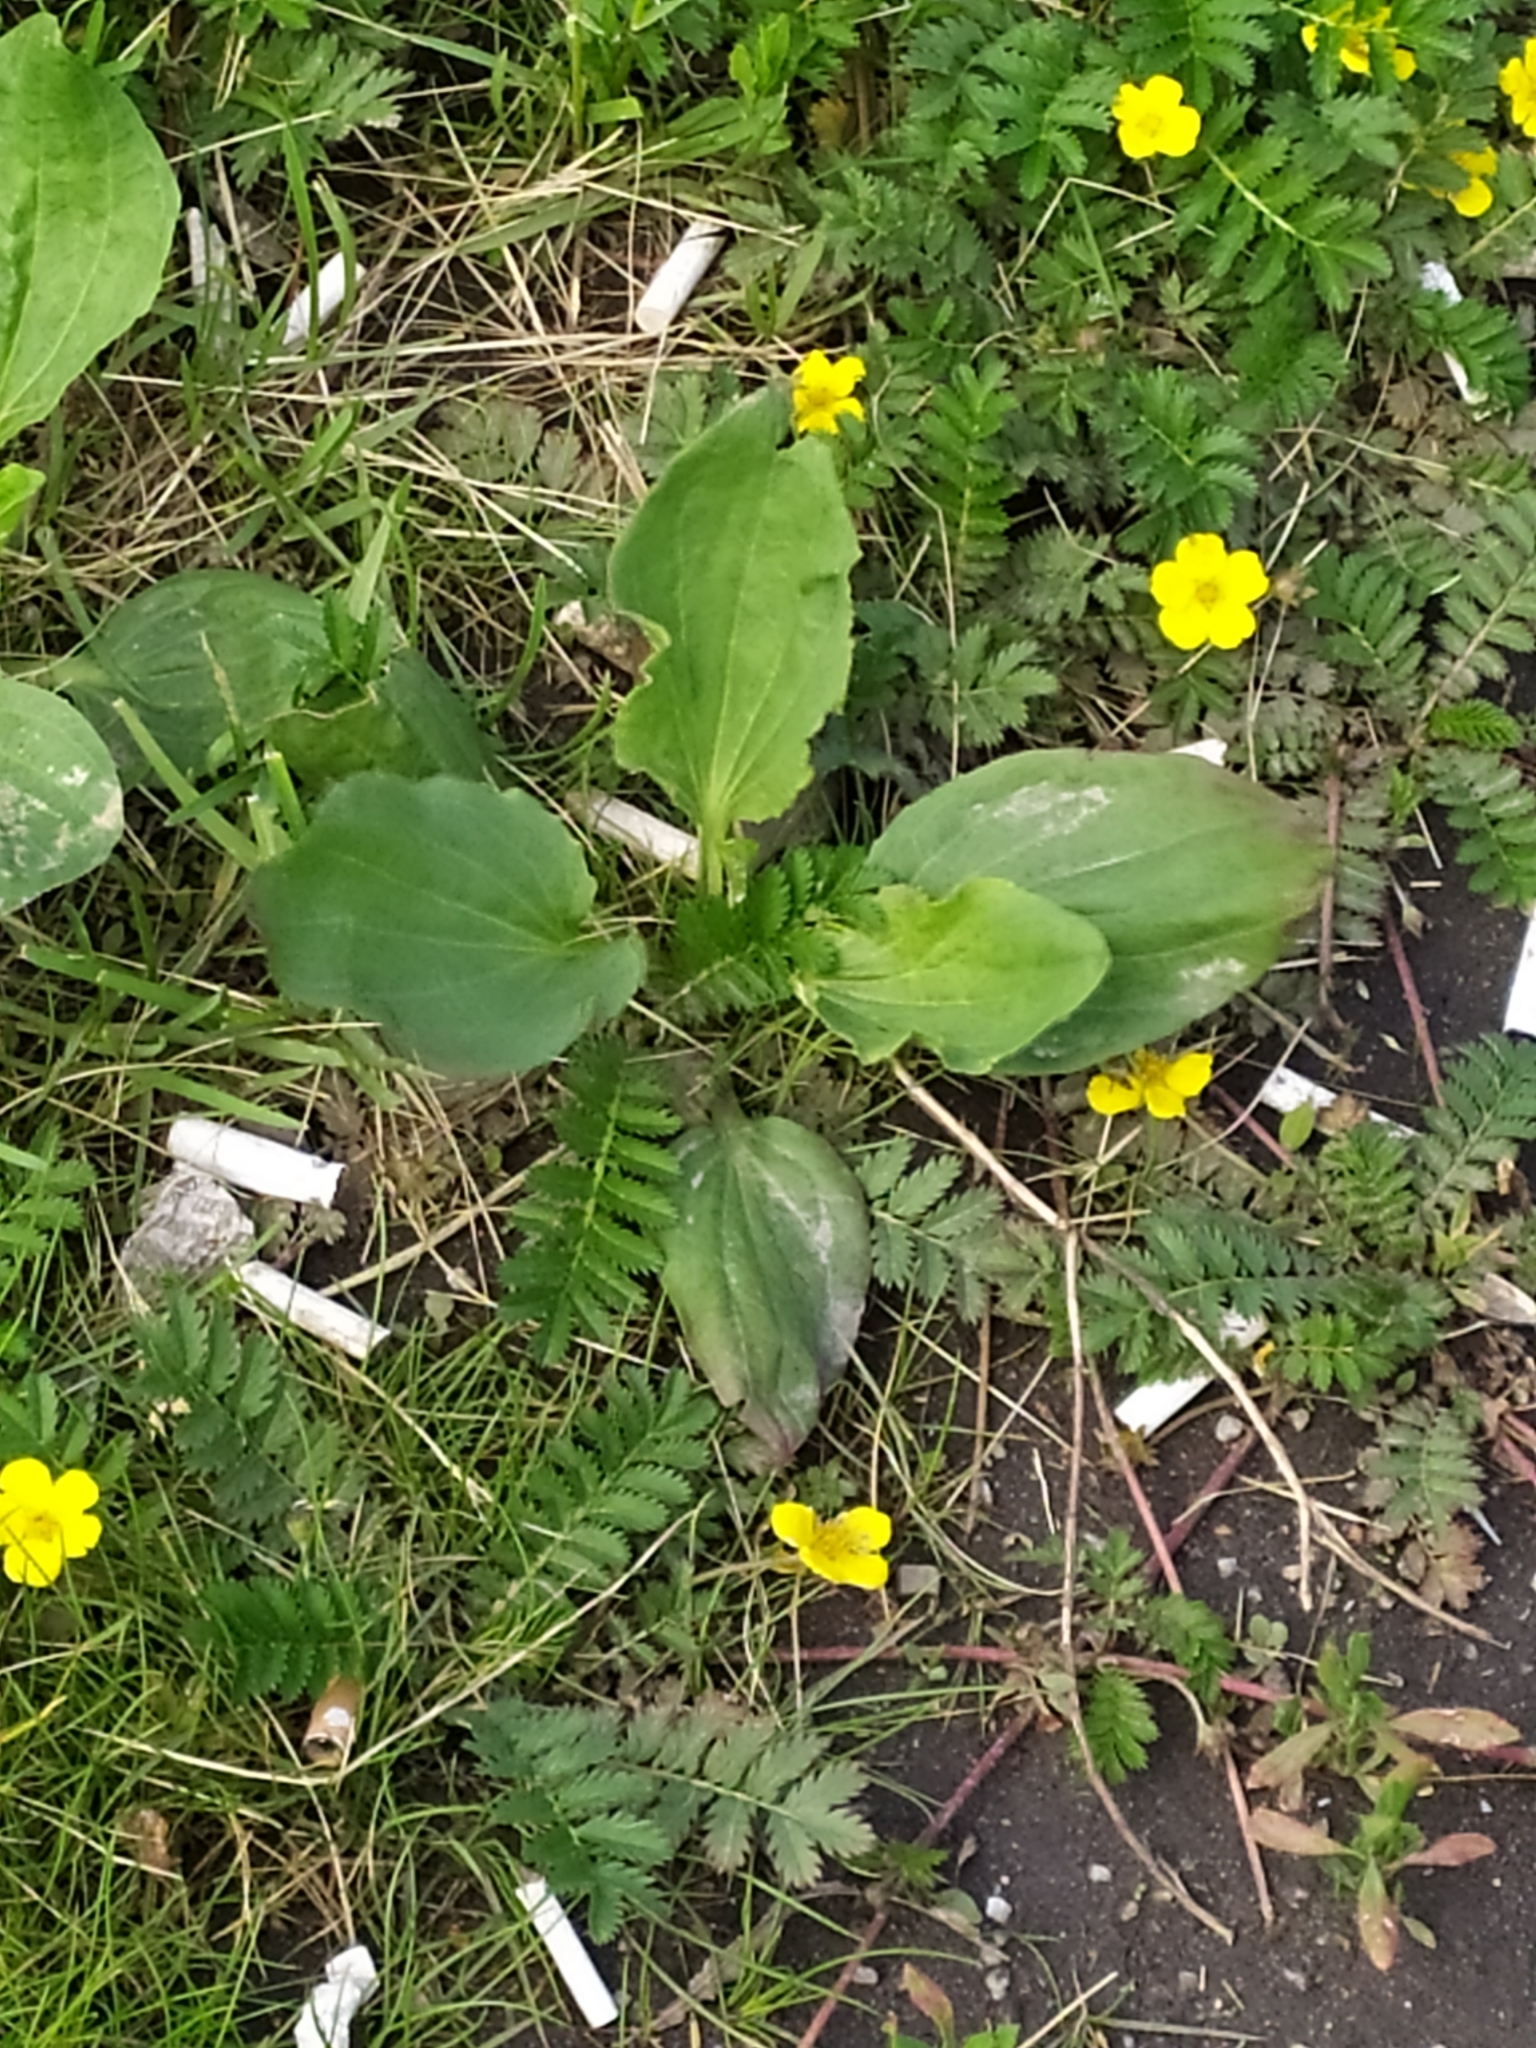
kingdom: Plantae
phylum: Tracheophyta
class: Magnoliopsida
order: Lamiales
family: Plantaginaceae
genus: Plantago
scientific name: Plantago major
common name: Common plantain
